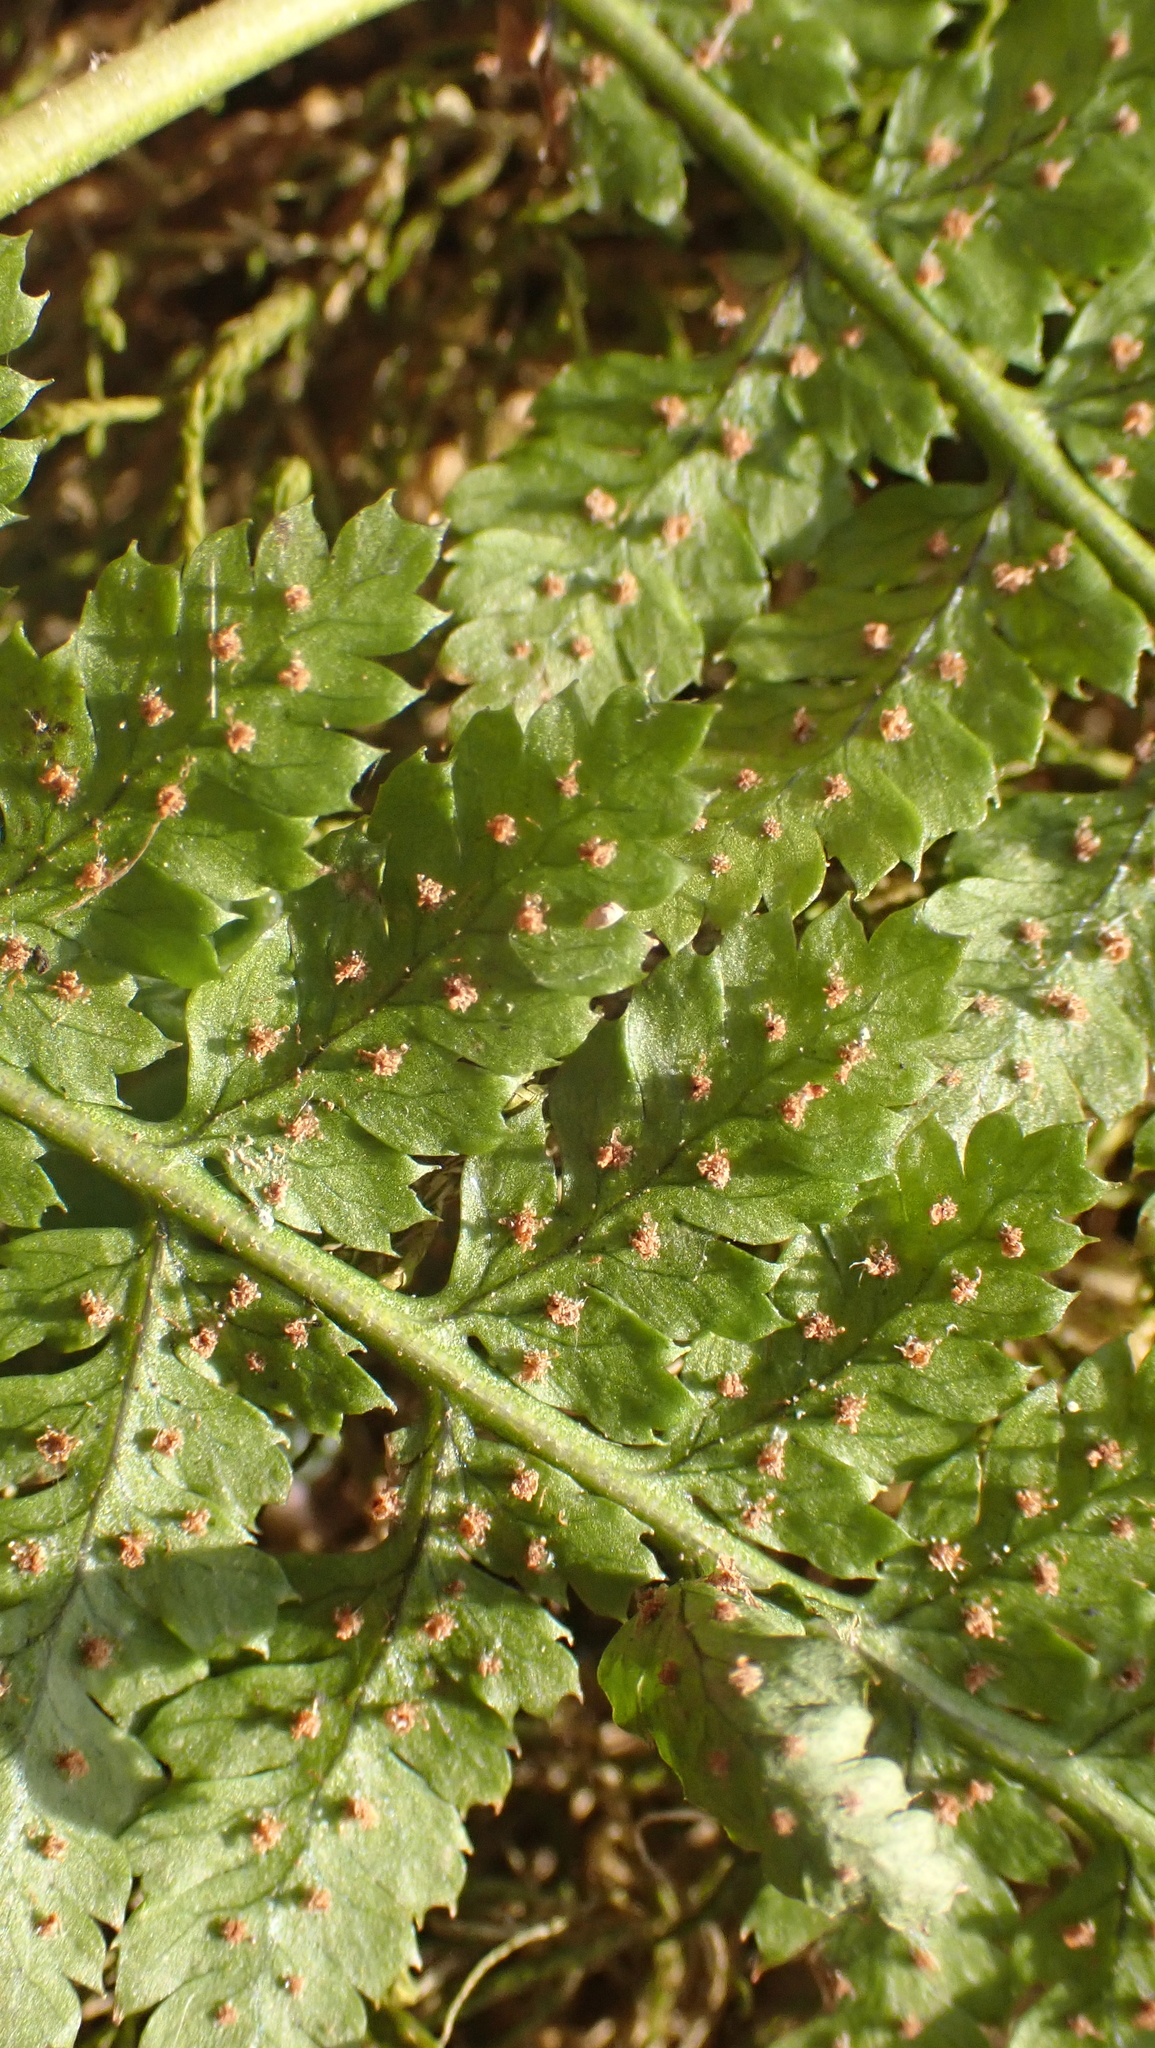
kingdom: Plantae
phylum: Tracheophyta
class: Polypodiopsida
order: Polypodiales
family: Dryopteridaceae
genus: Dryopteris
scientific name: Dryopteris intermedia
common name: Evergreen wood fern
